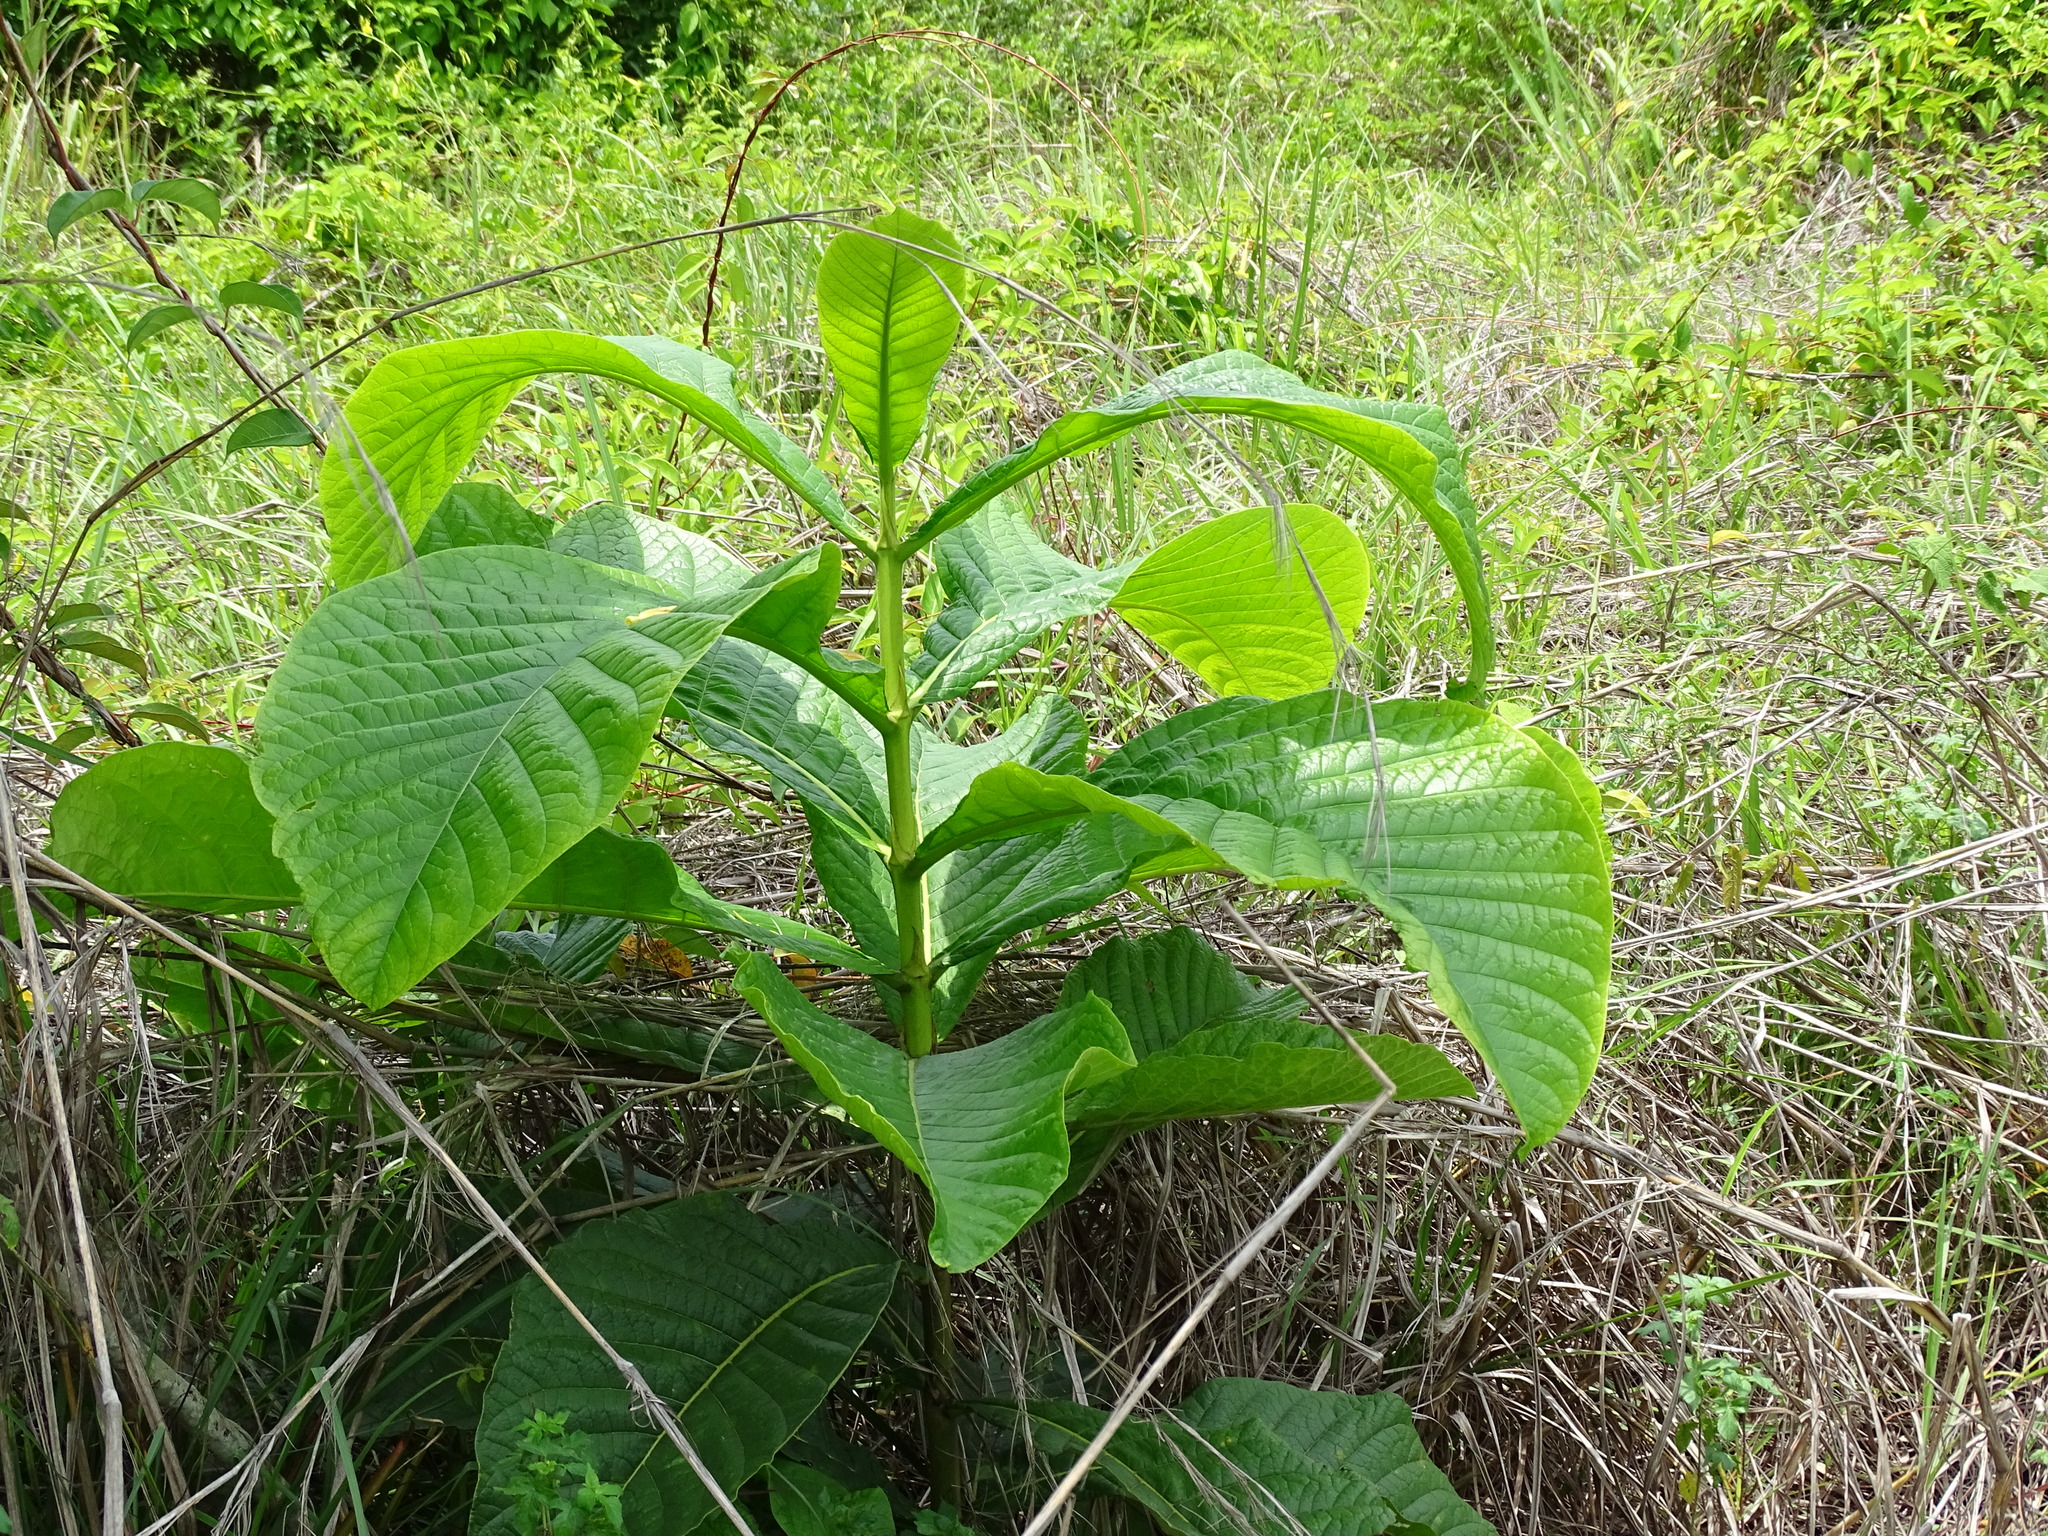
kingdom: Plantae
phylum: Tracheophyta
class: Magnoliopsida
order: Gentianales
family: Rubiaceae
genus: Genipa
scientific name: Genipa americana
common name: Genipap
